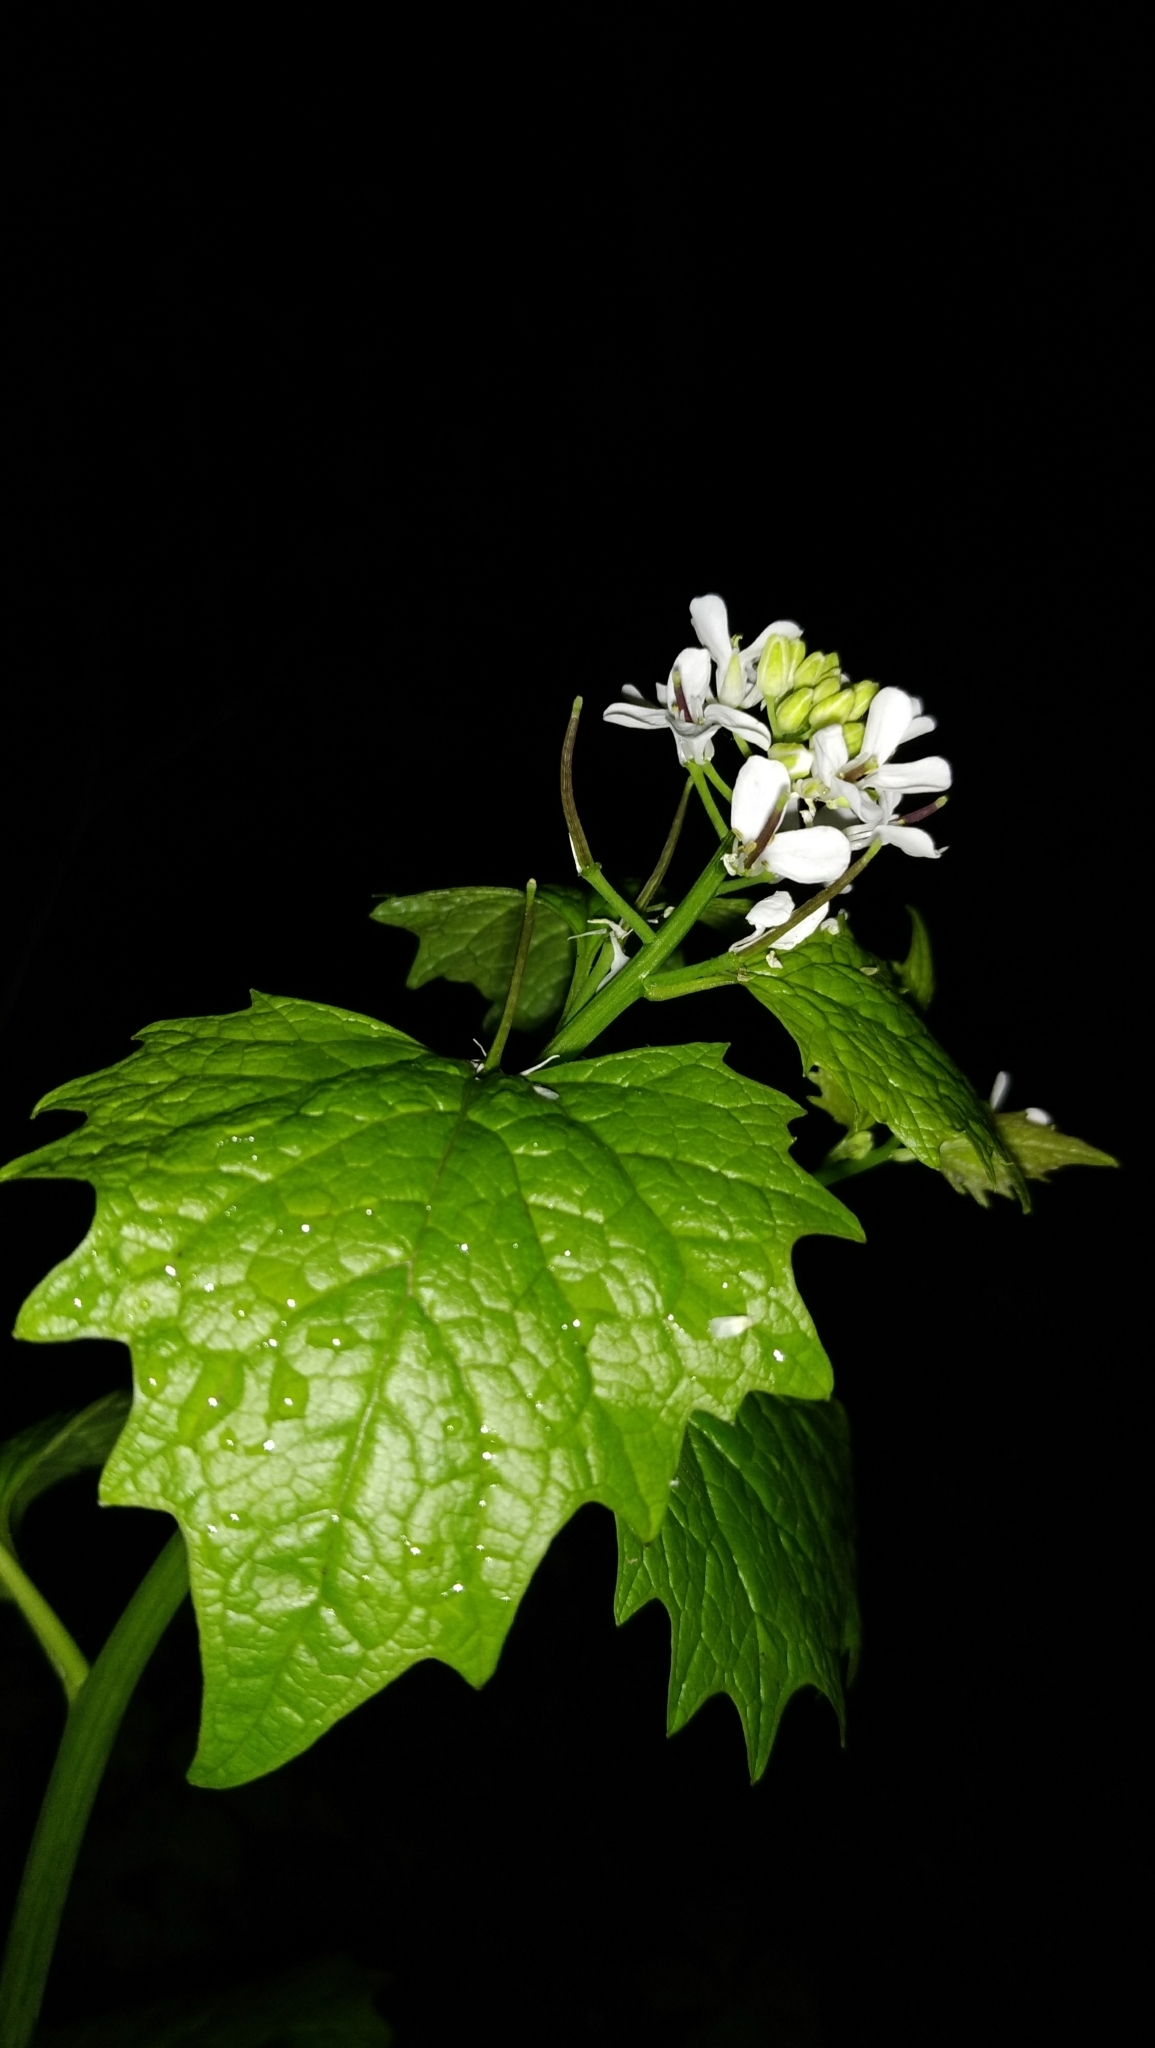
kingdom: Plantae
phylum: Tracheophyta
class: Magnoliopsida
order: Brassicales
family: Brassicaceae
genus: Alliaria
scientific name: Alliaria petiolata
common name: Garlic mustard
